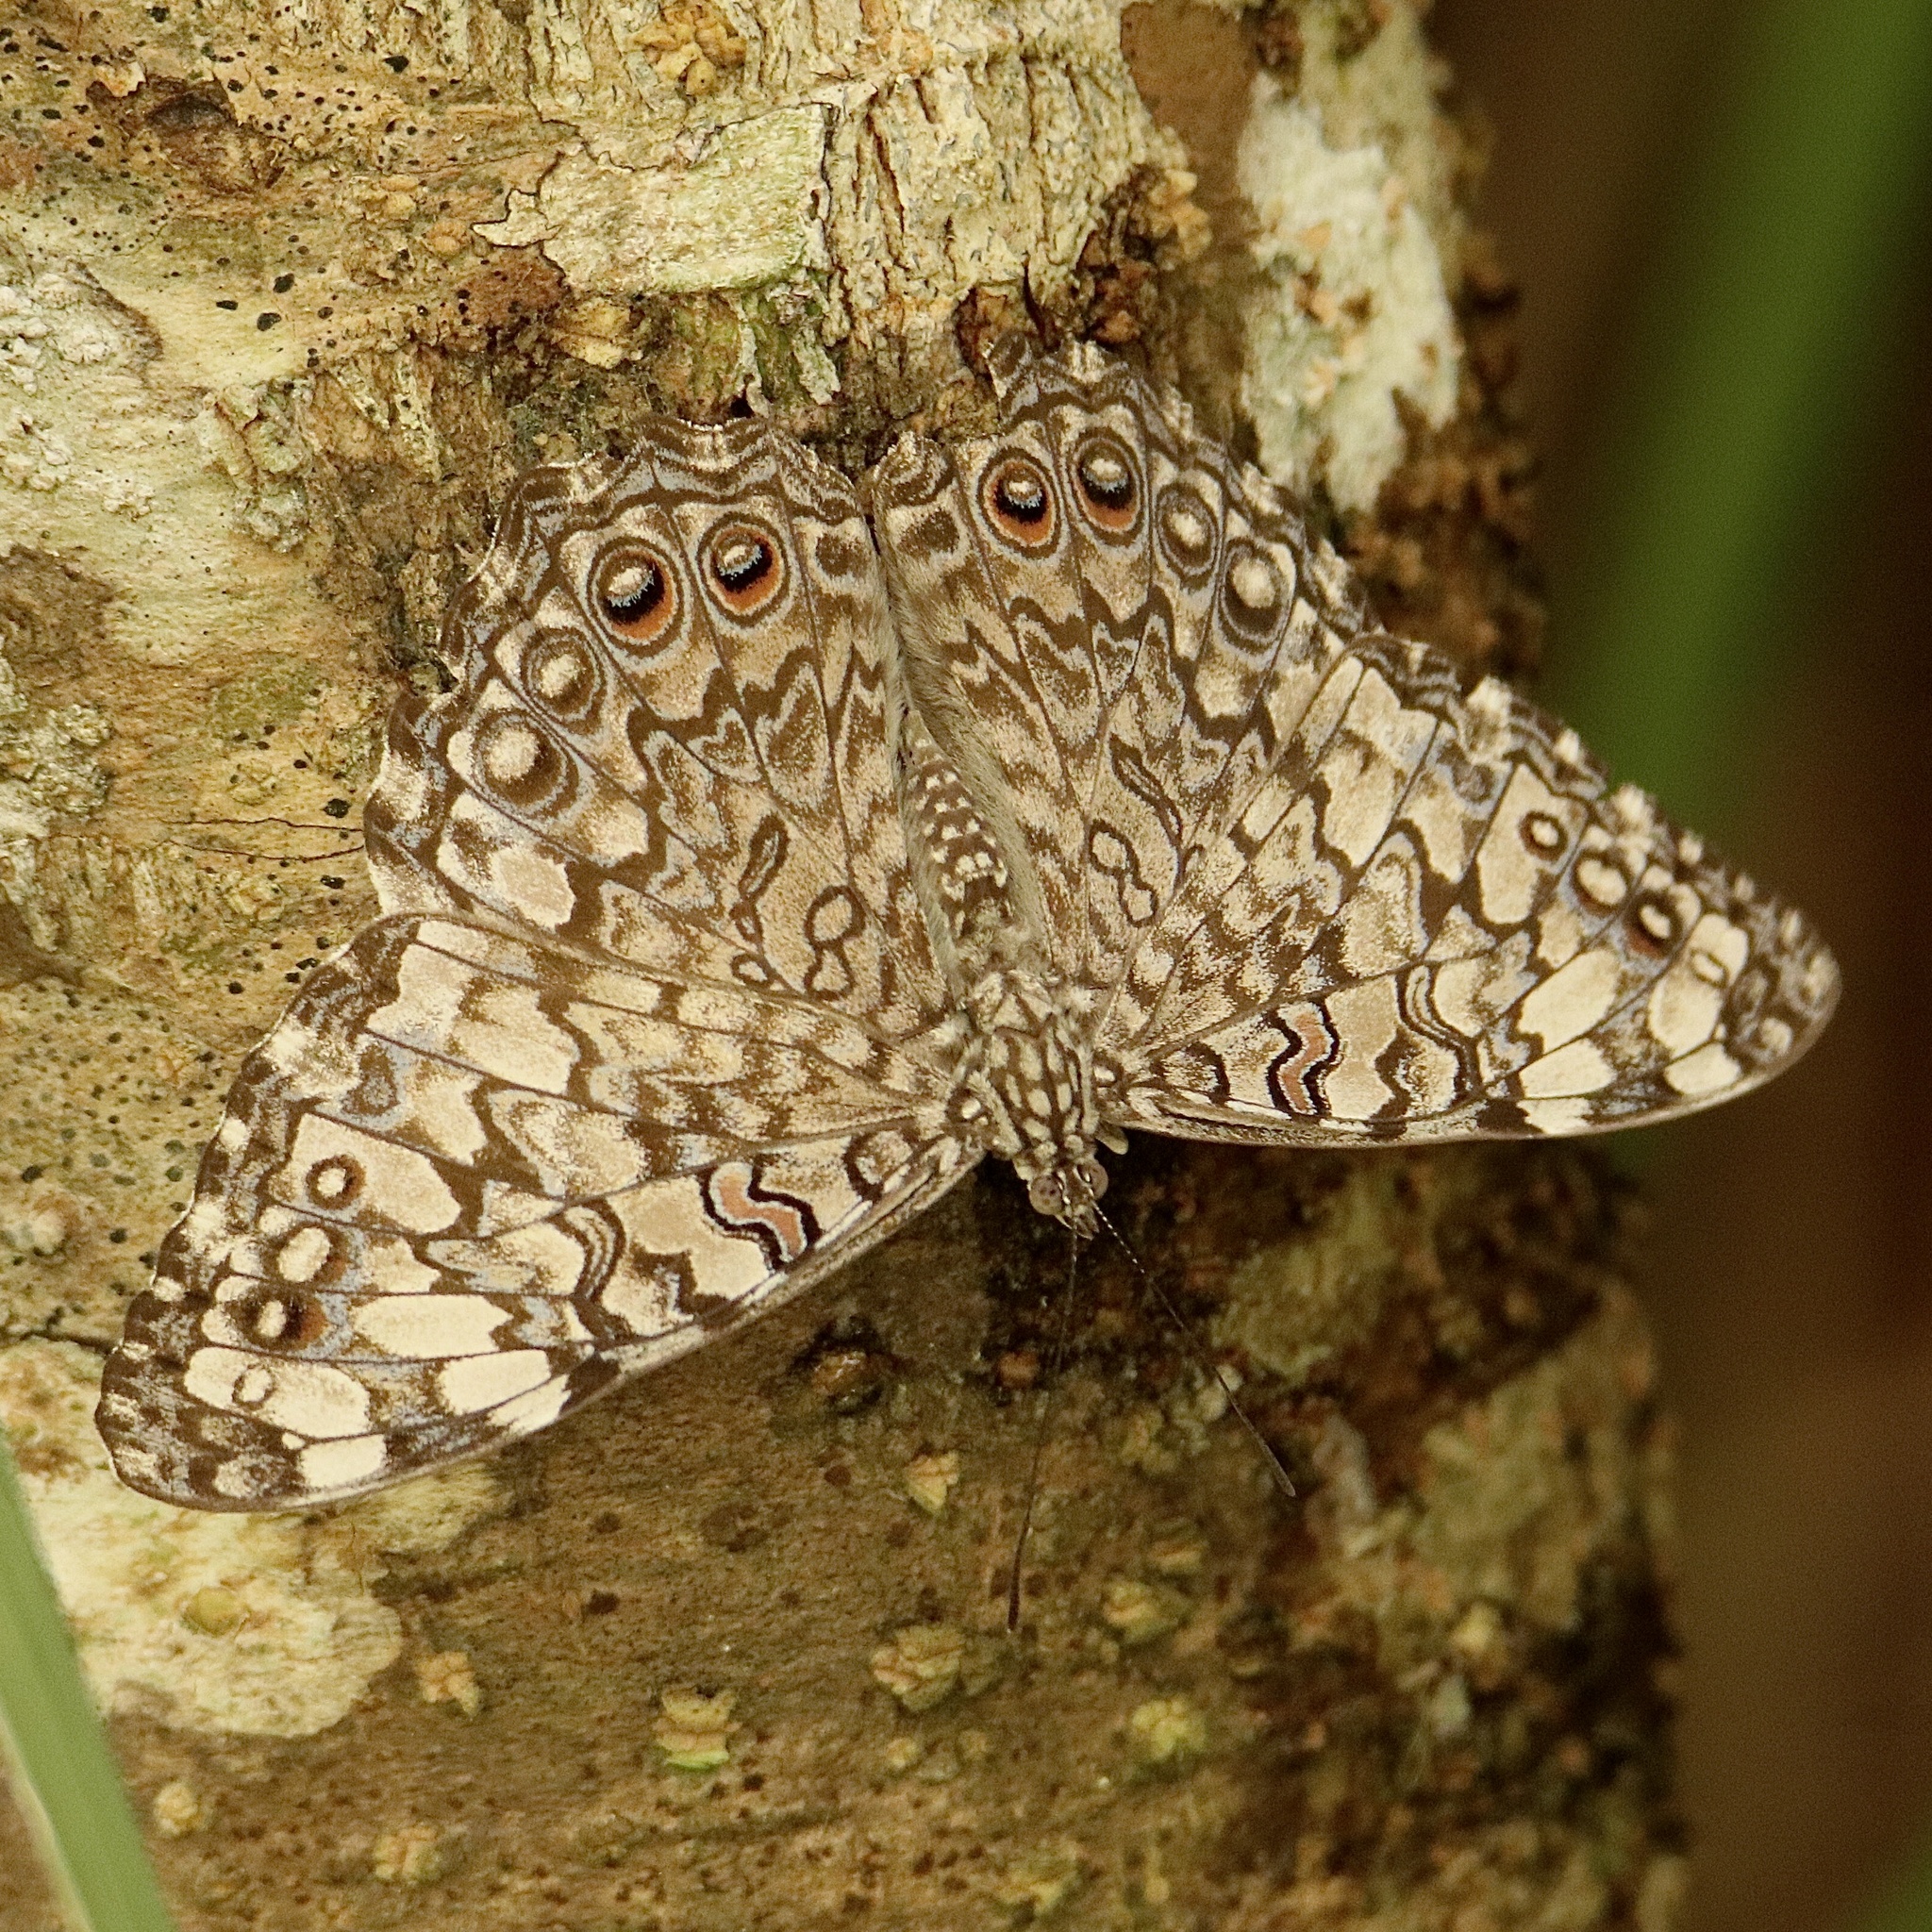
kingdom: Animalia
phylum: Arthropoda
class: Insecta
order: Lepidoptera
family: Nymphalidae
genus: Hamadryas
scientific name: Hamadryas februa
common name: Gray cracker
